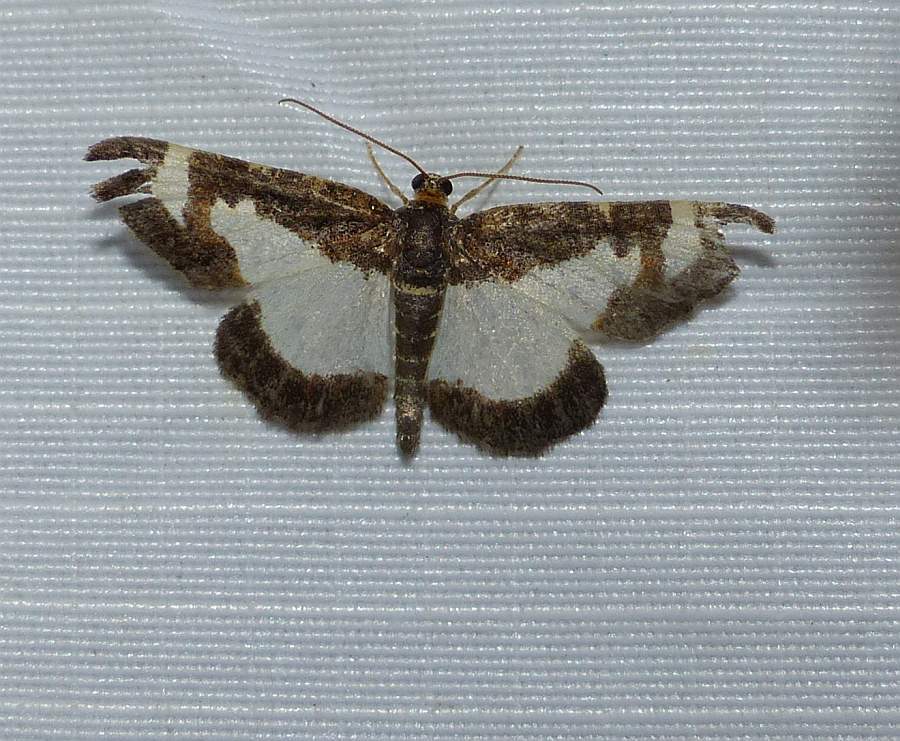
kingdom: Animalia
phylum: Arthropoda
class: Insecta
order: Lepidoptera
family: Geometridae
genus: Heliomata
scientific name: Heliomata cycladata
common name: Common spring moth
